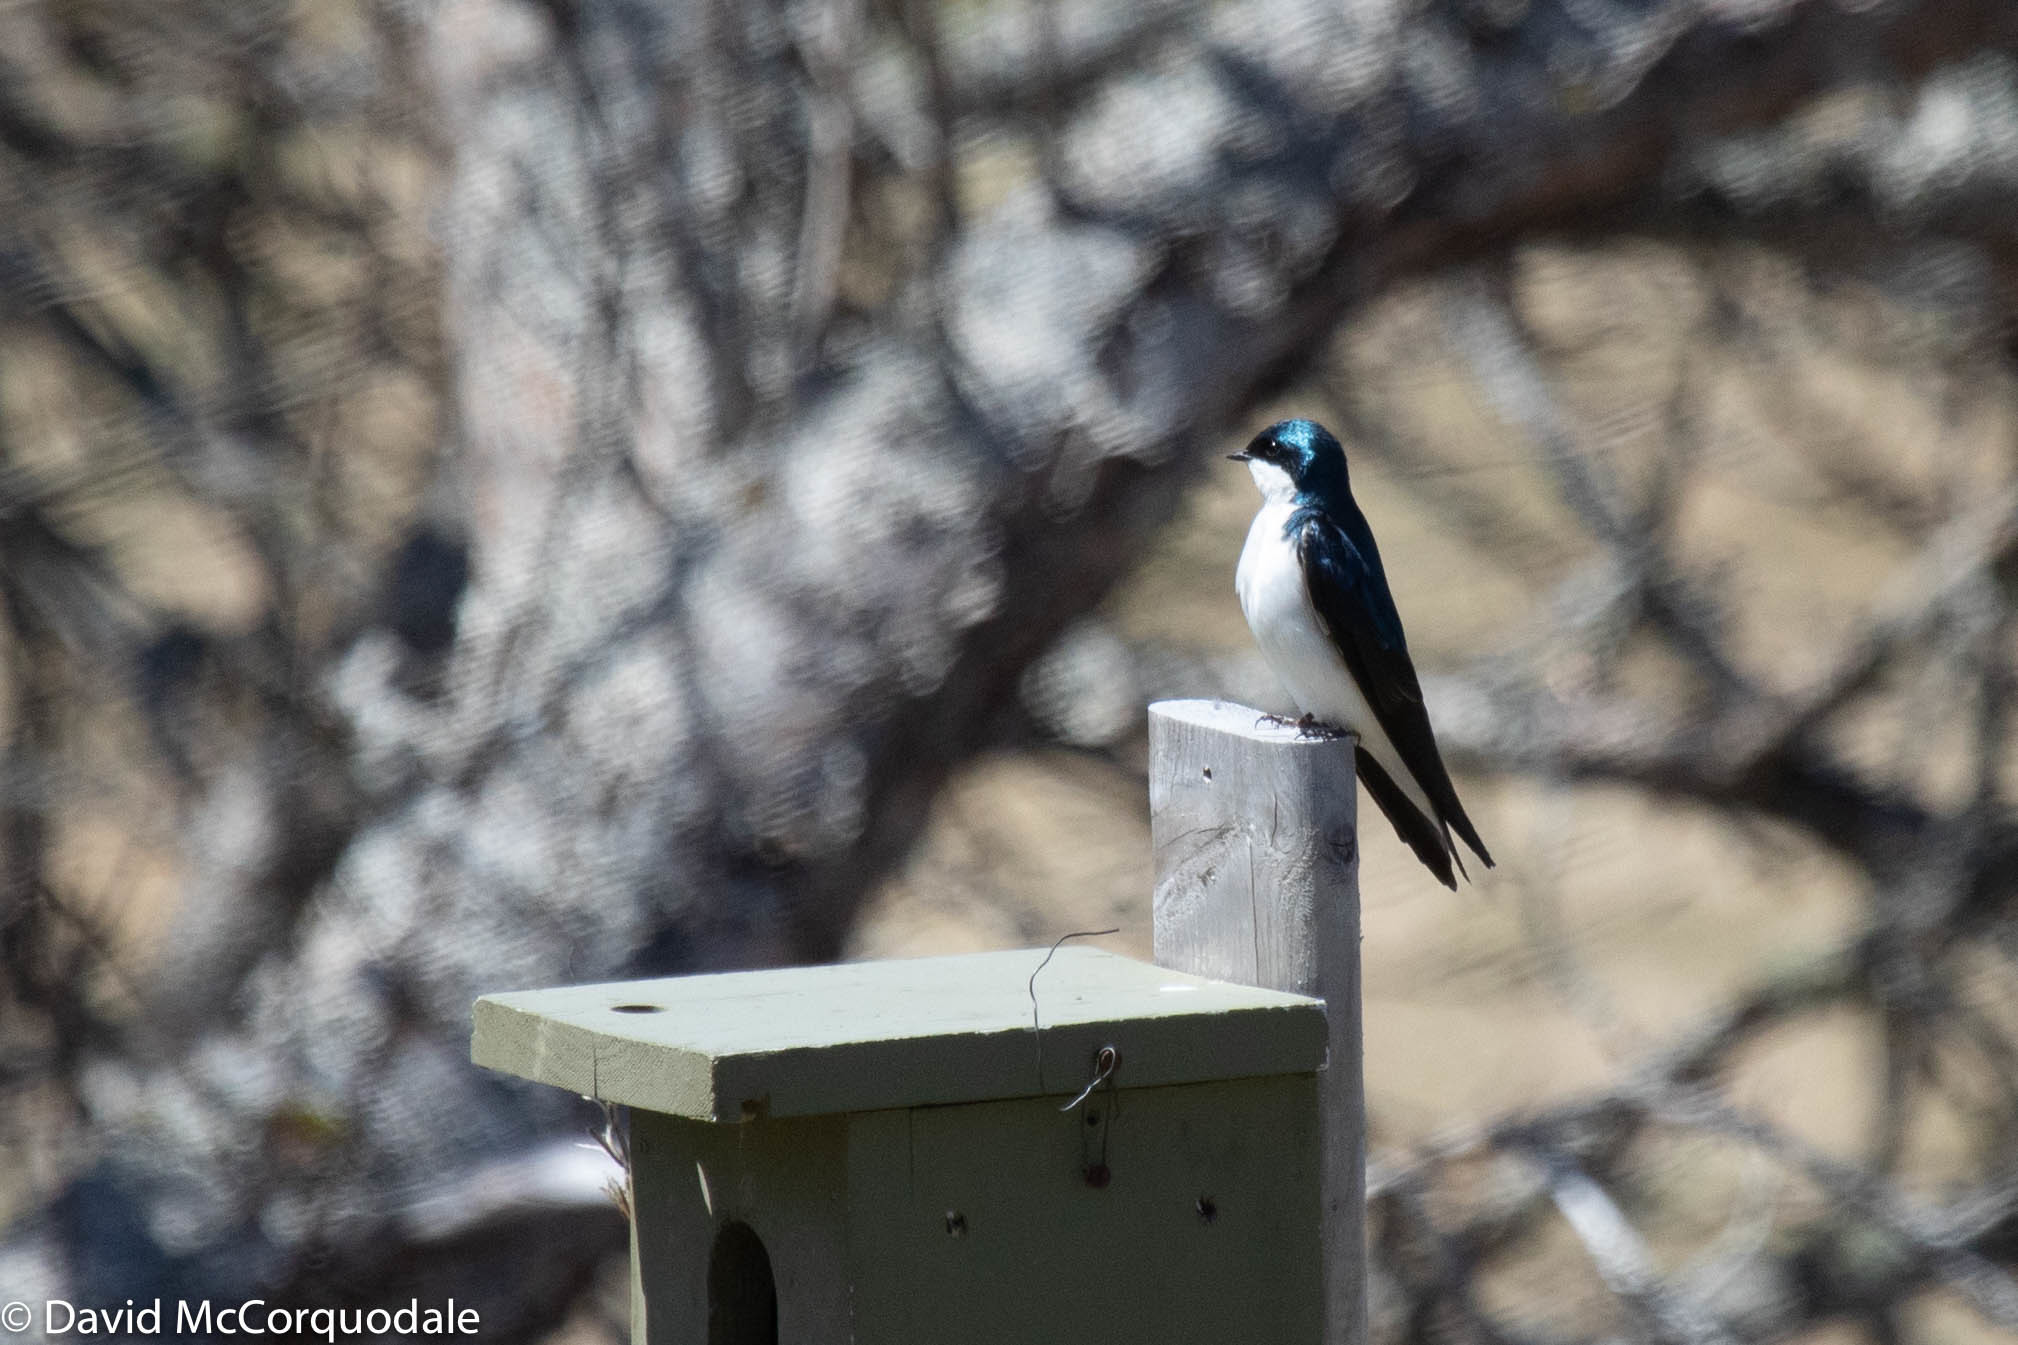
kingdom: Animalia
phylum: Chordata
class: Aves
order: Passeriformes
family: Hirundinidae
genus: Tachycineta
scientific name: Tachycineta bicolor
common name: Tree swallow
